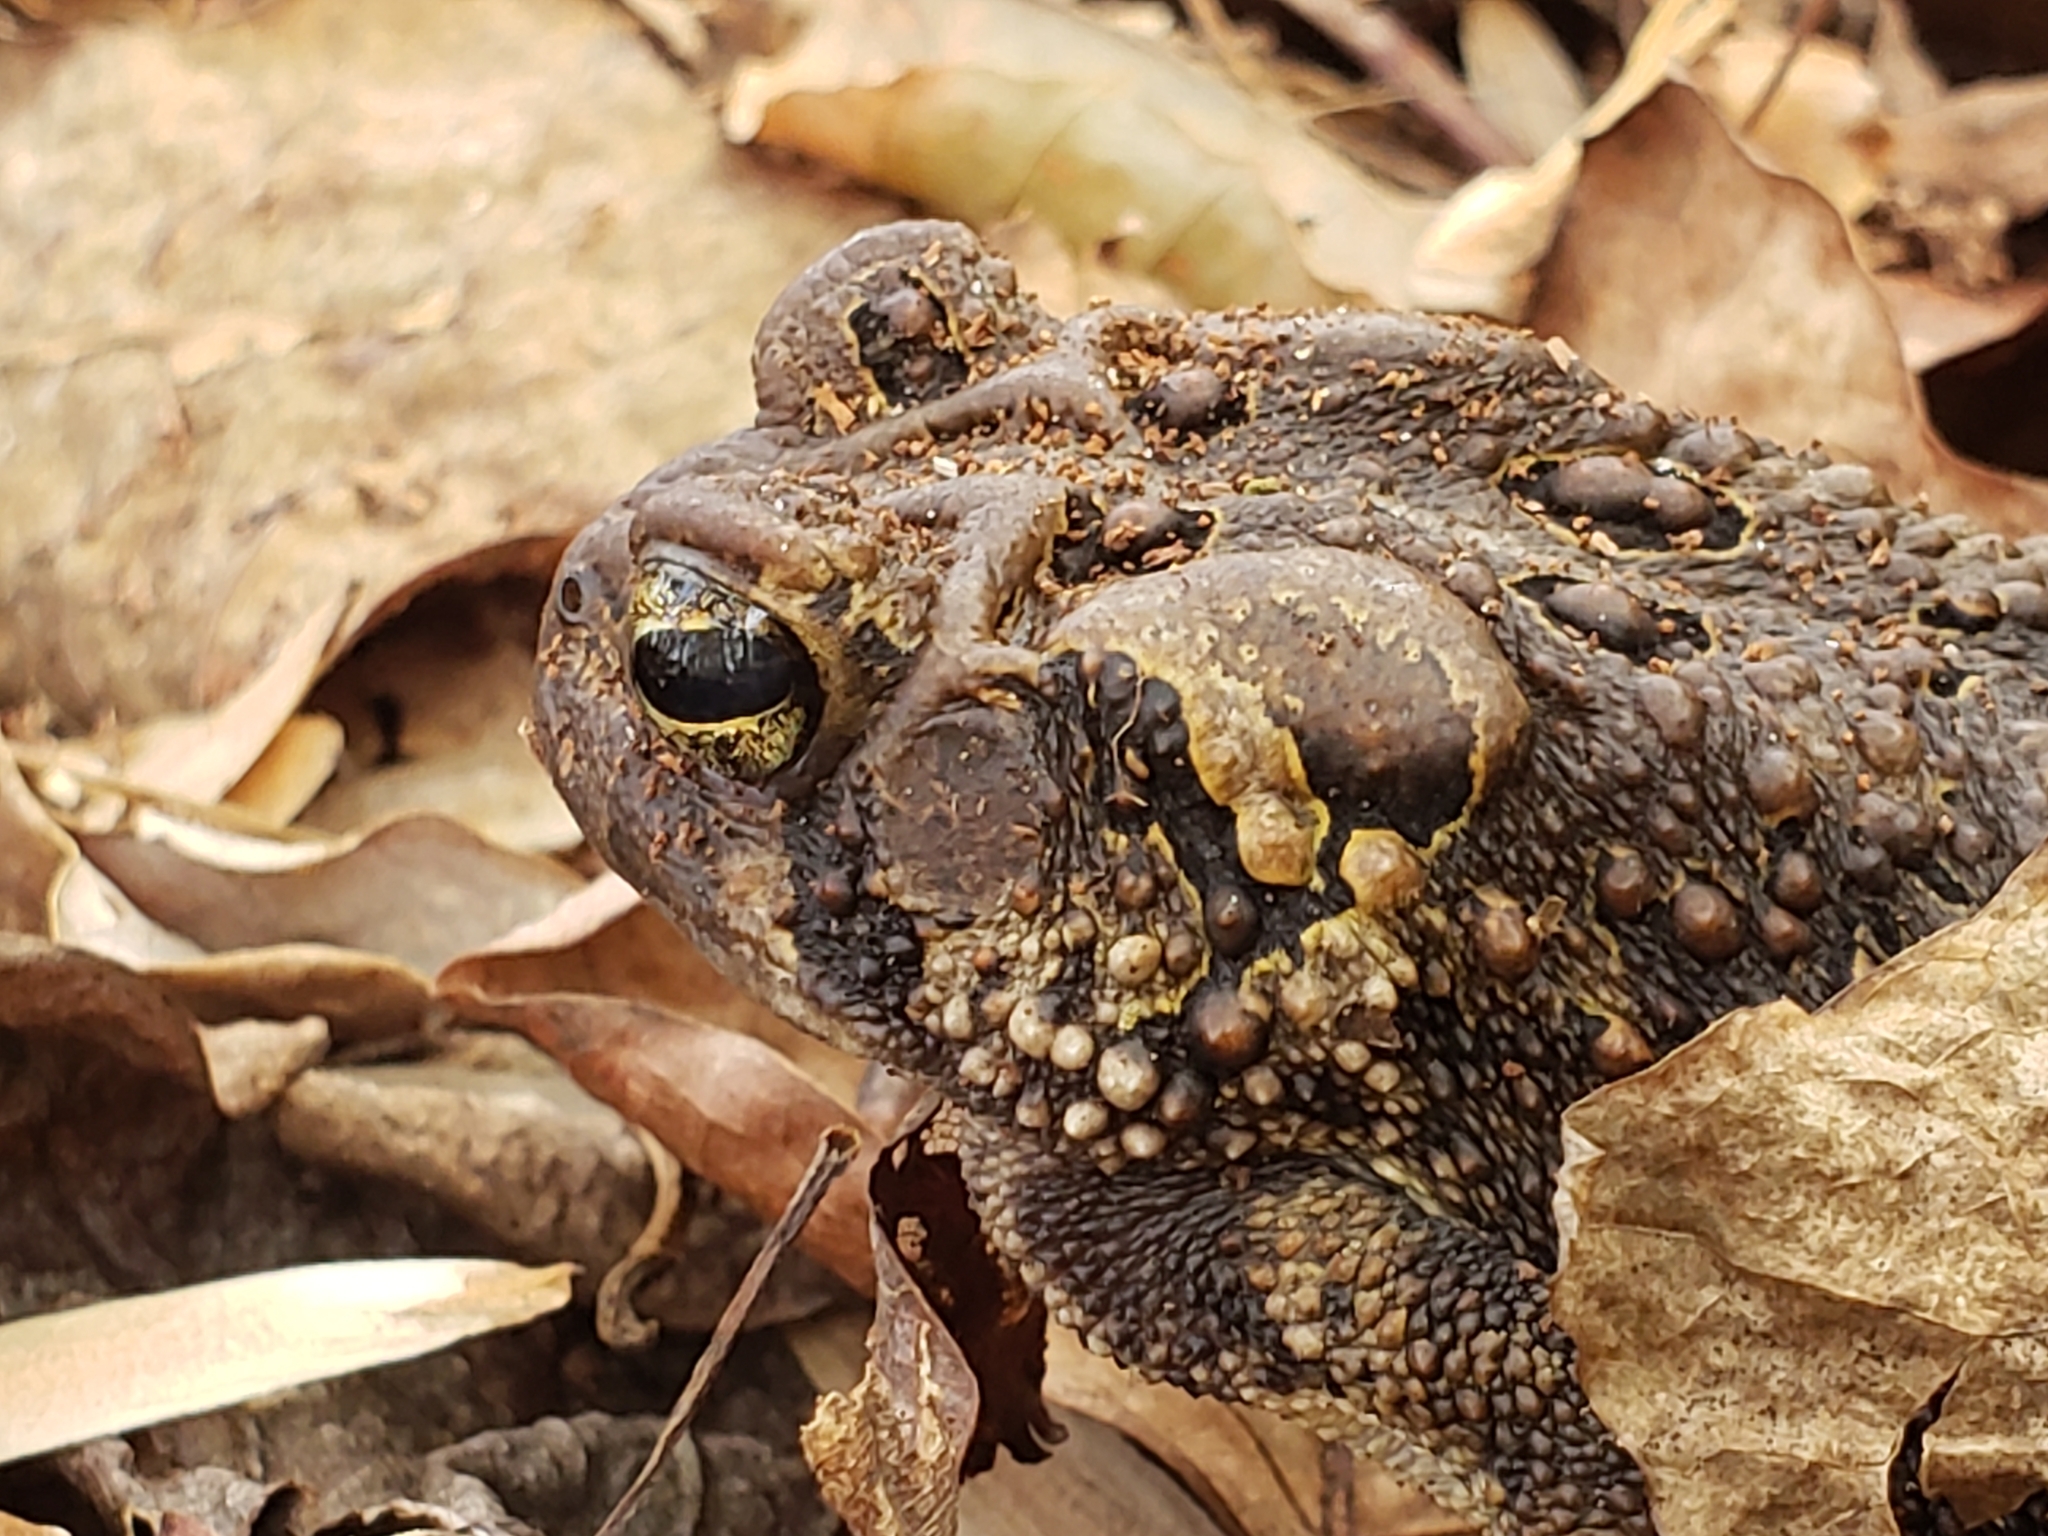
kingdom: Animalia
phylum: Chordata
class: Amphibia
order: Anura
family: Bufonidae
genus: Anaxyrus
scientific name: Anaxyrus americanus
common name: American toad
